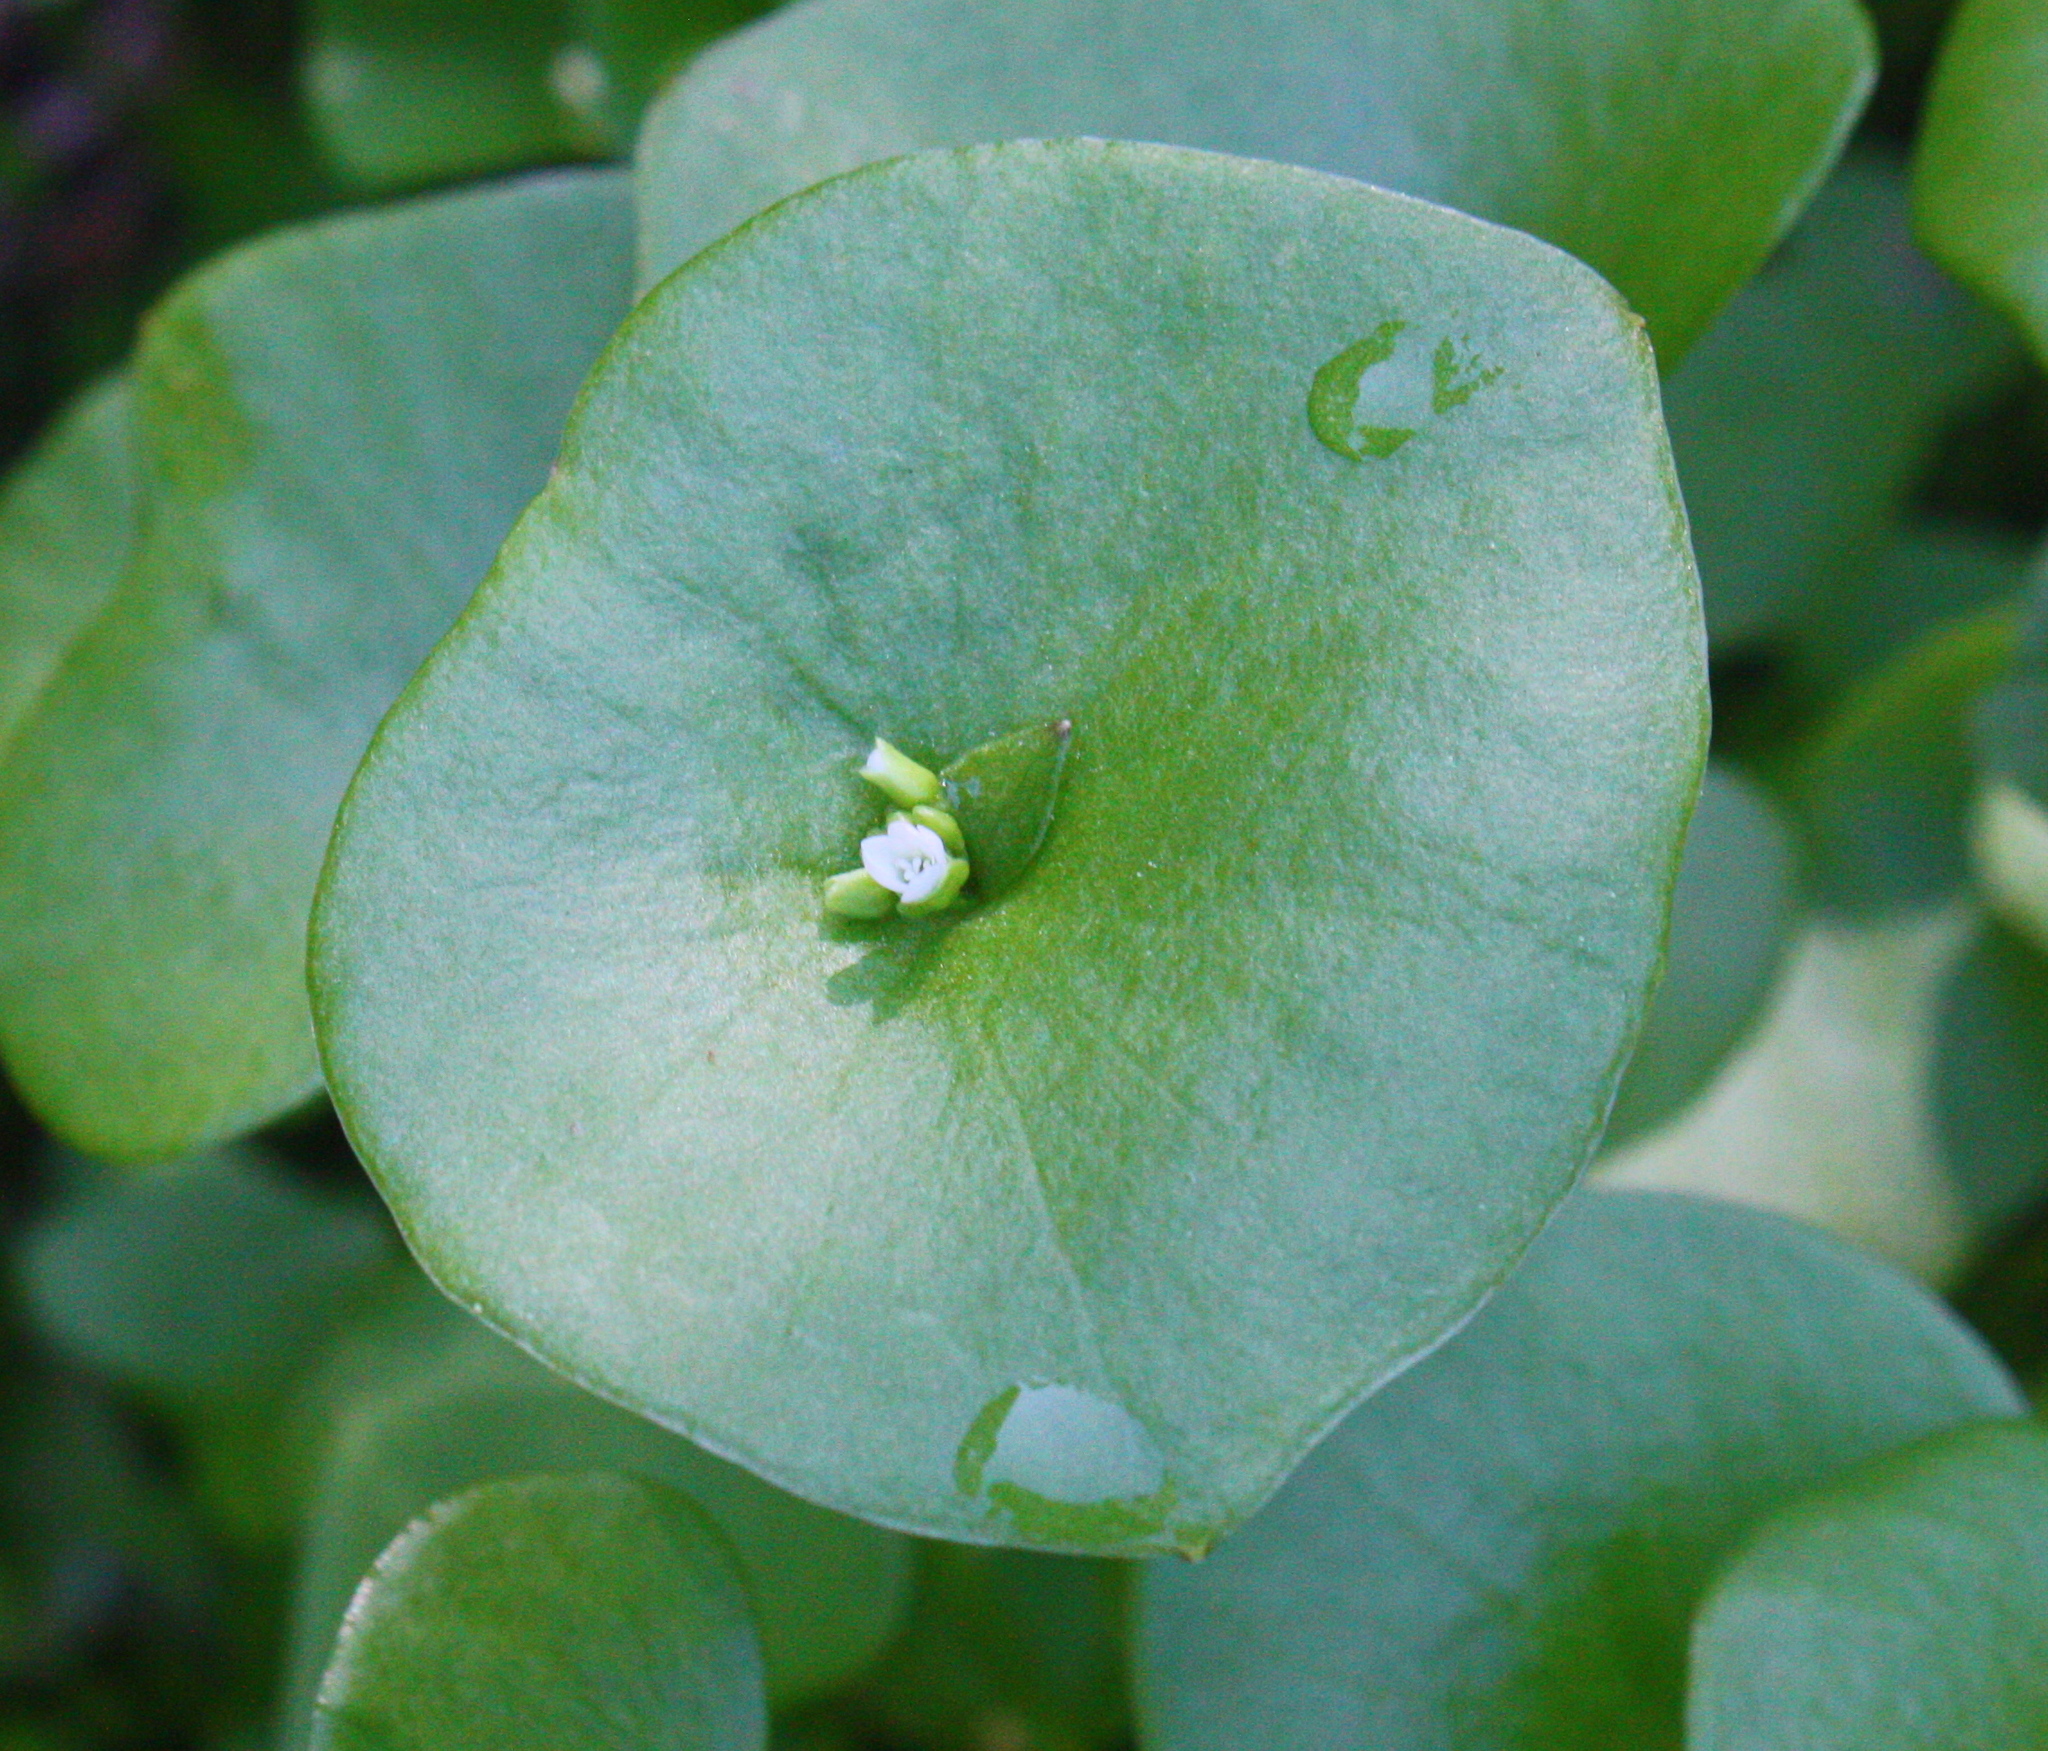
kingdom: Plantae
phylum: Tracheophyta
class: Magnoliopsida
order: Caryophyllales
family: Montiaceae
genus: Claytonia
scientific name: Claytonia perfoliata
